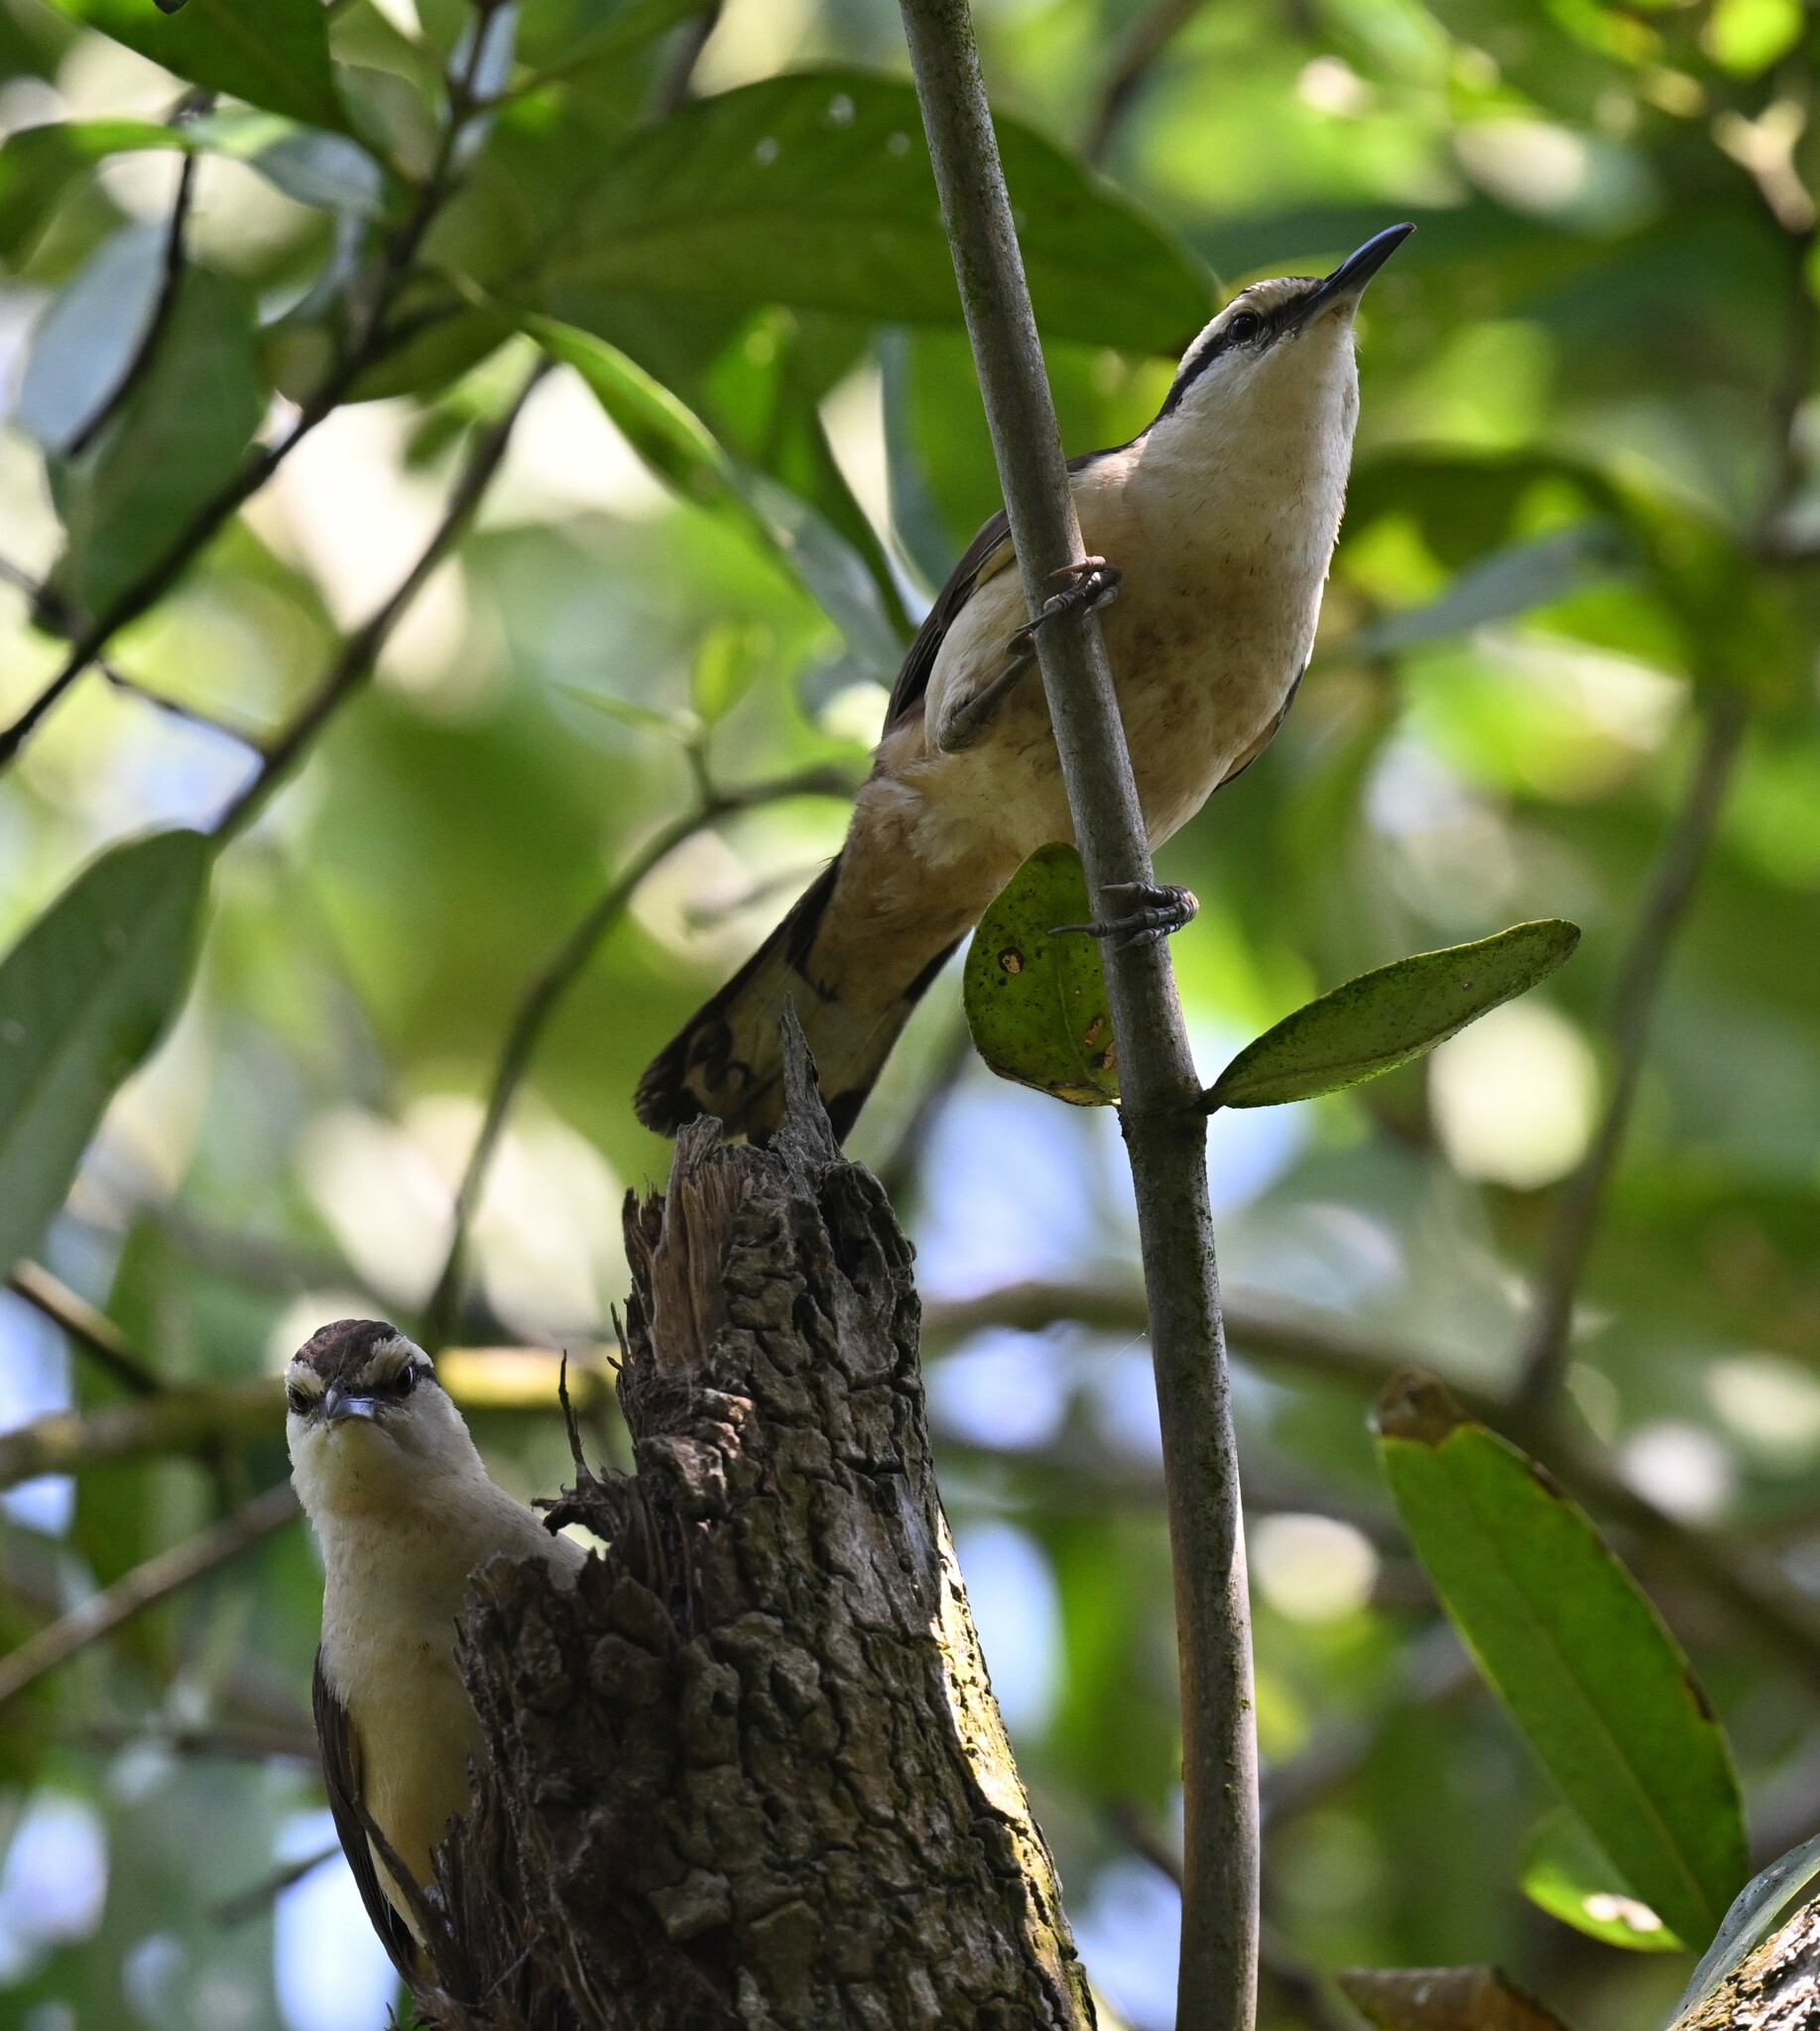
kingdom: Animalia
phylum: Chordata
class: Aves
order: Passeriformes
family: Troglodytidae
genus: Campylorhynchus
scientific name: Campylorhynchus griseus
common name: Bicolored wren
